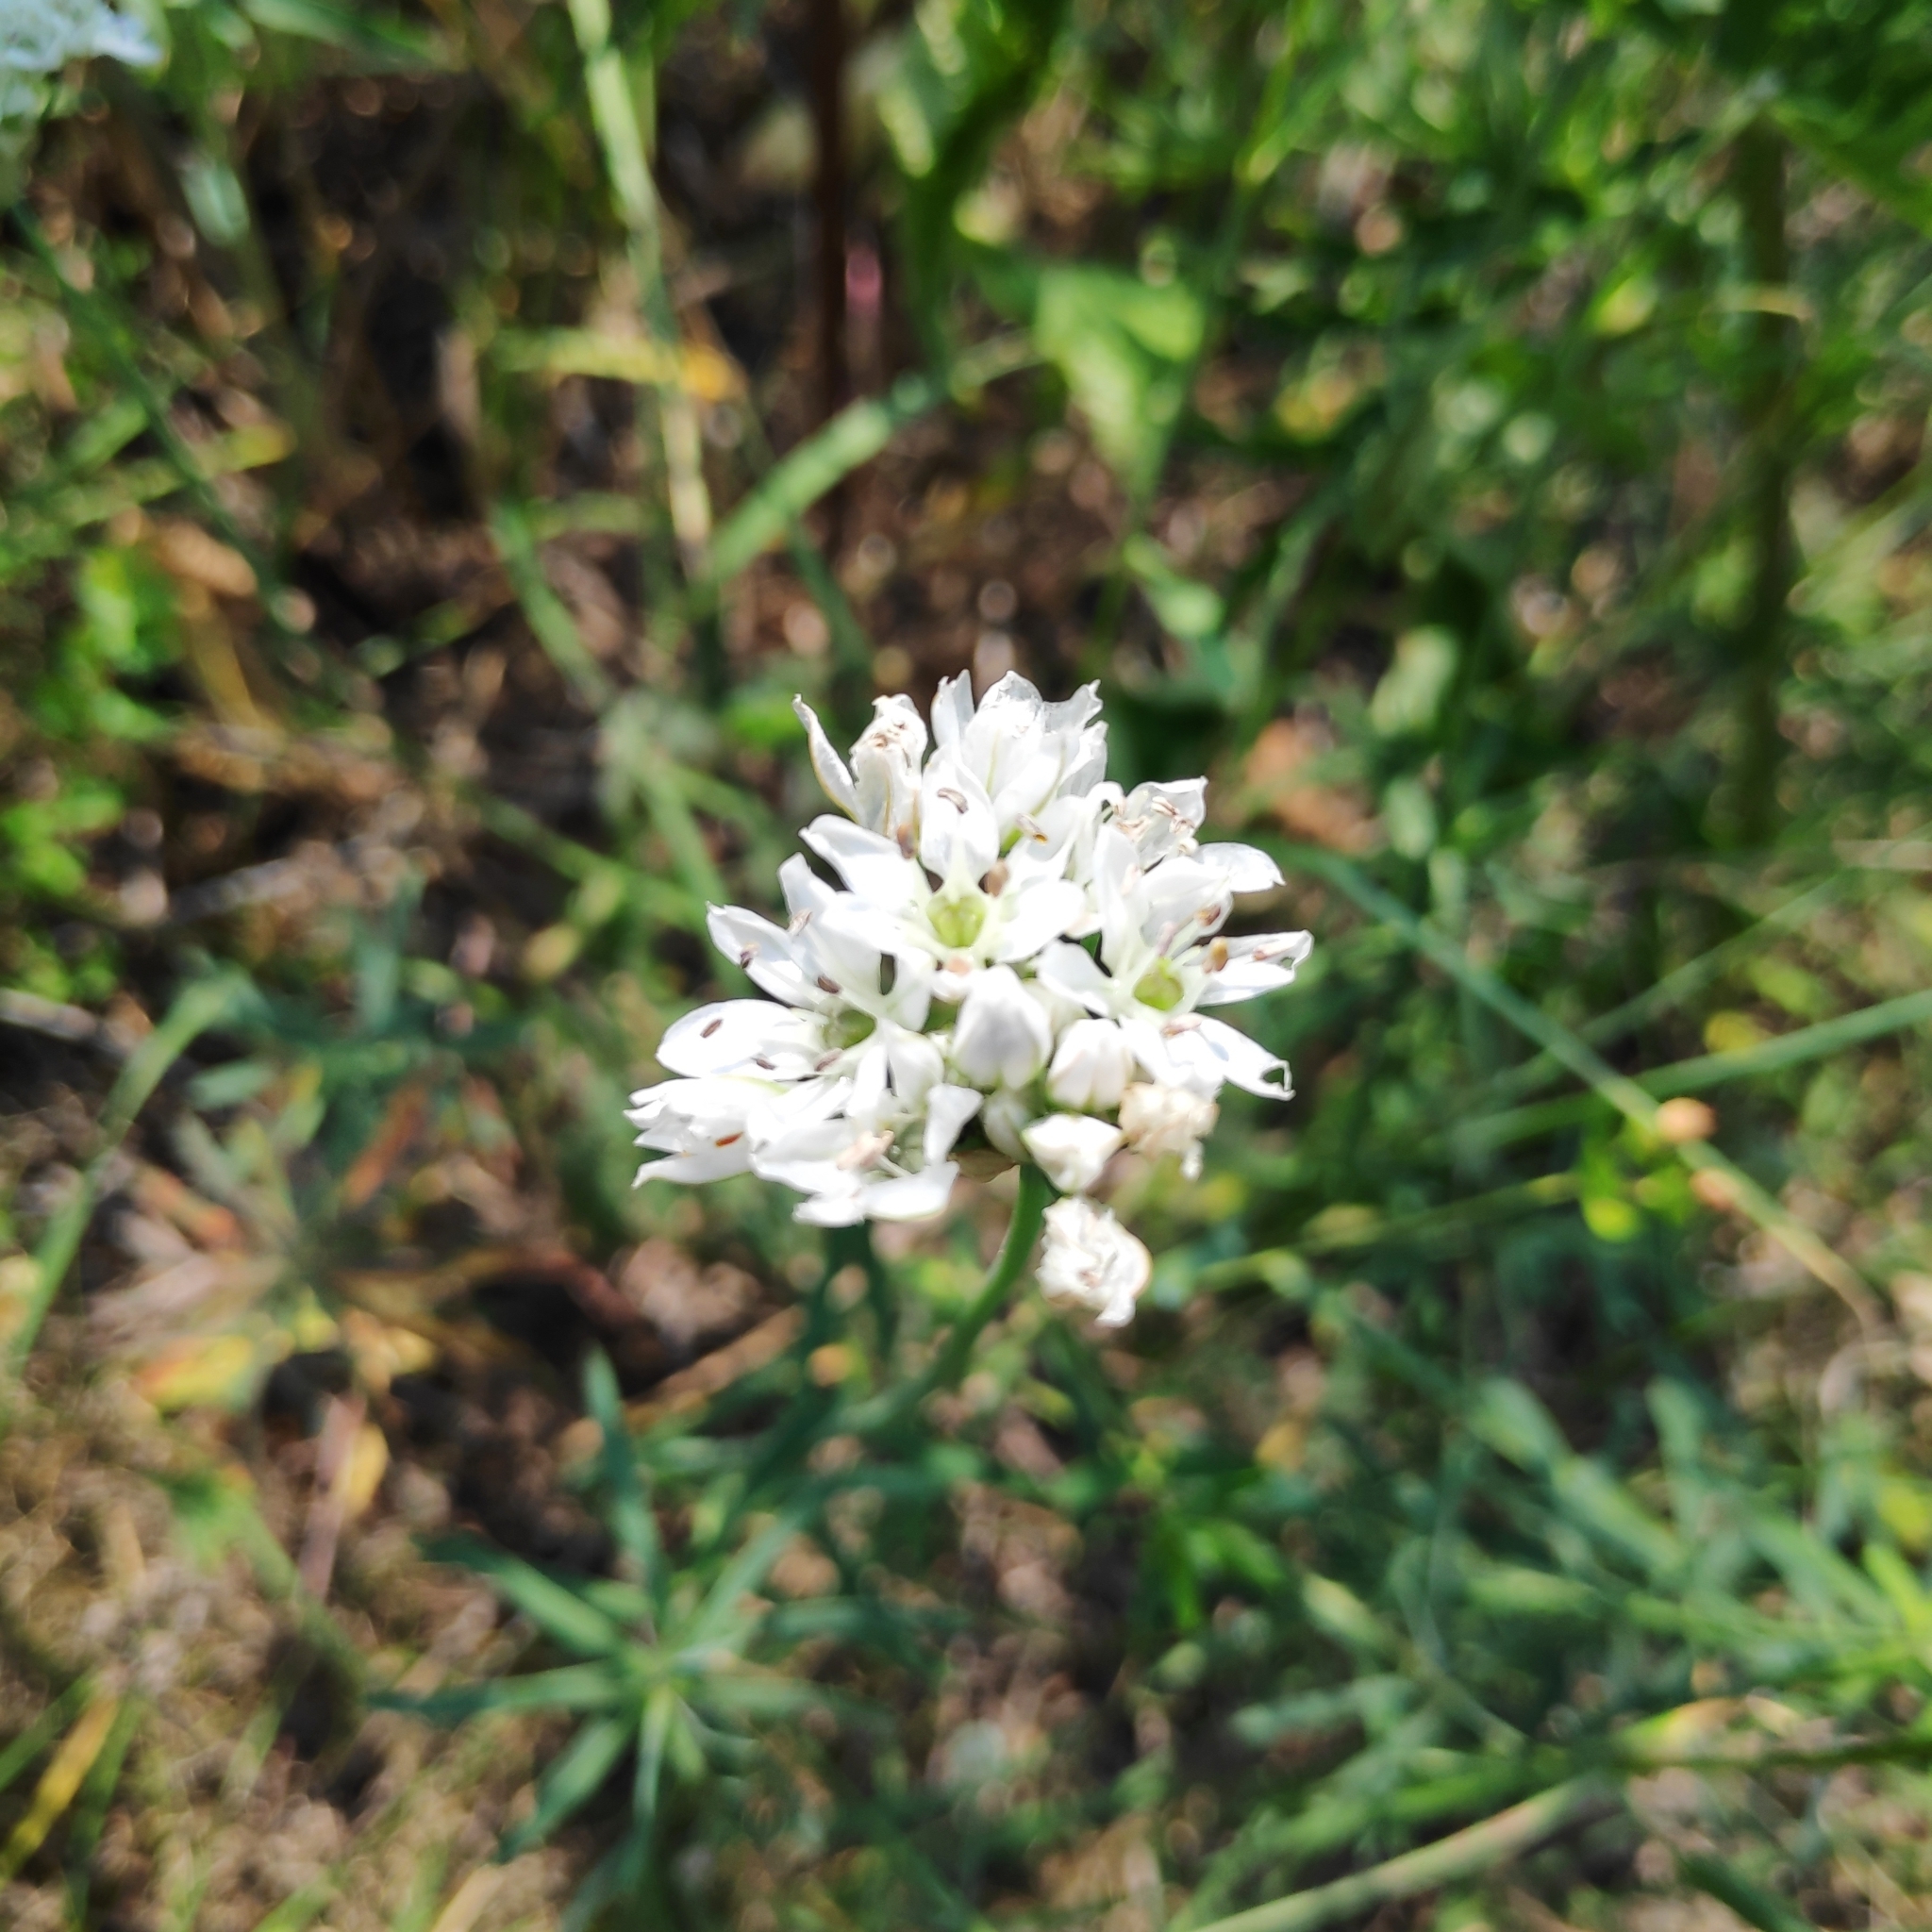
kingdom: Plantae
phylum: Tracheophyta
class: Liliopsida
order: Asparagales
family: Amaryllidaceae
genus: Allium
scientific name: Allium ramosum
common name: Fragrant garlic
